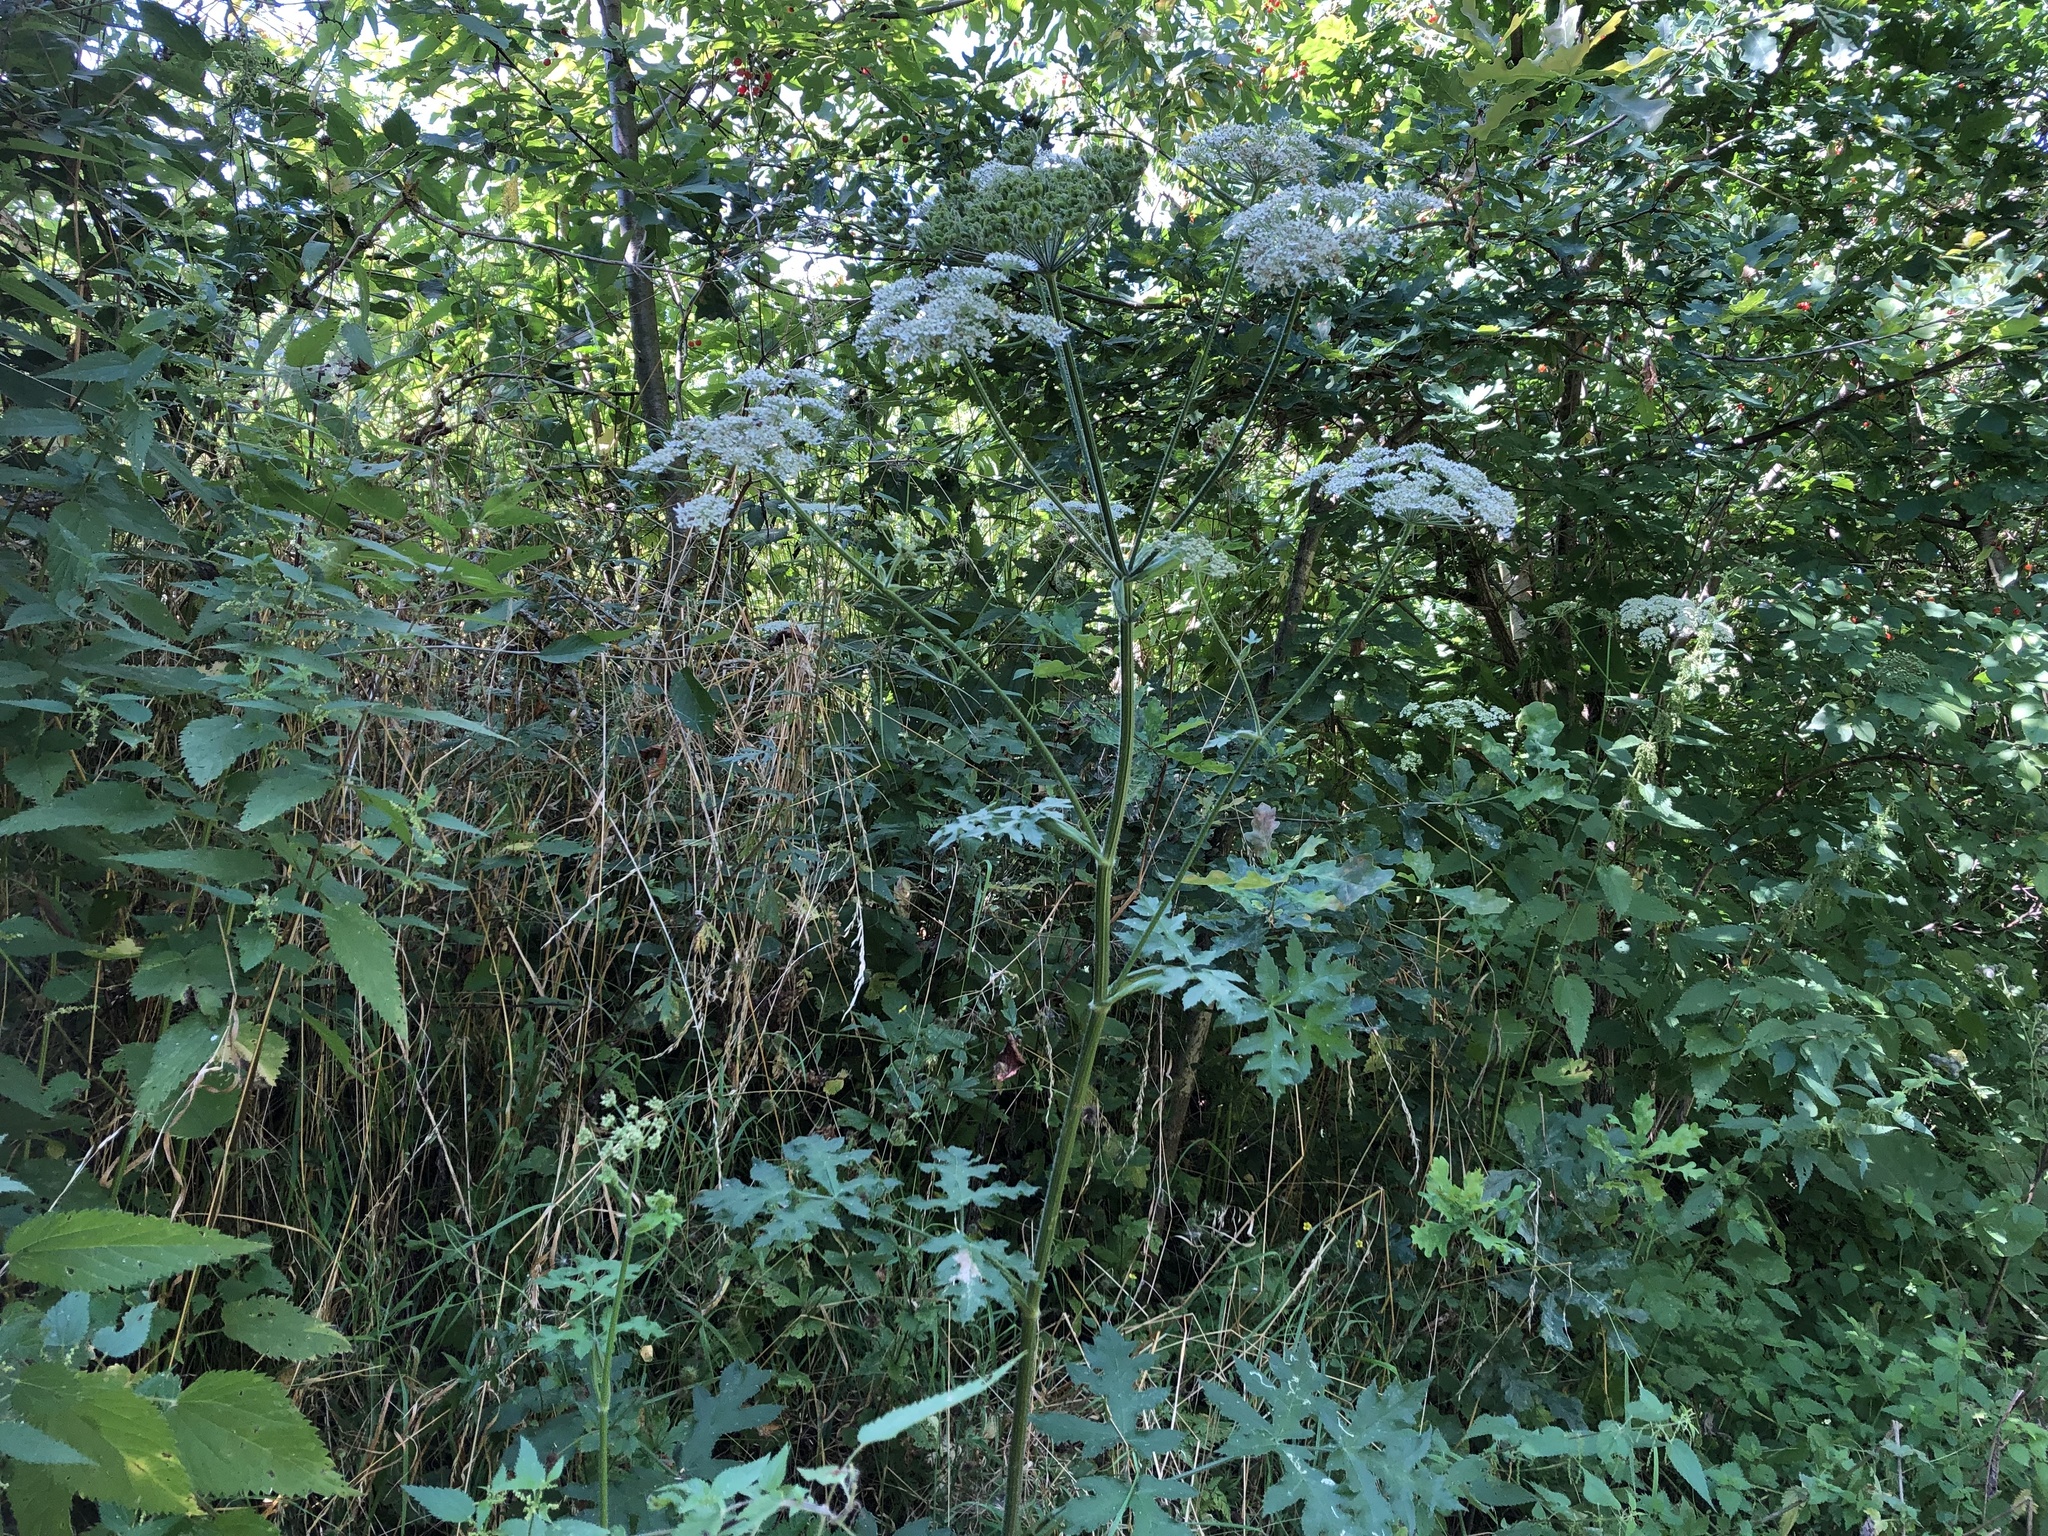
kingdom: Plantae
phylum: Tracheophyta
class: Magnoliopsida
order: Apiales
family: Apiaceae
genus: Heracleum
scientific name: Heracleum sphondylium
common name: Hogweed
